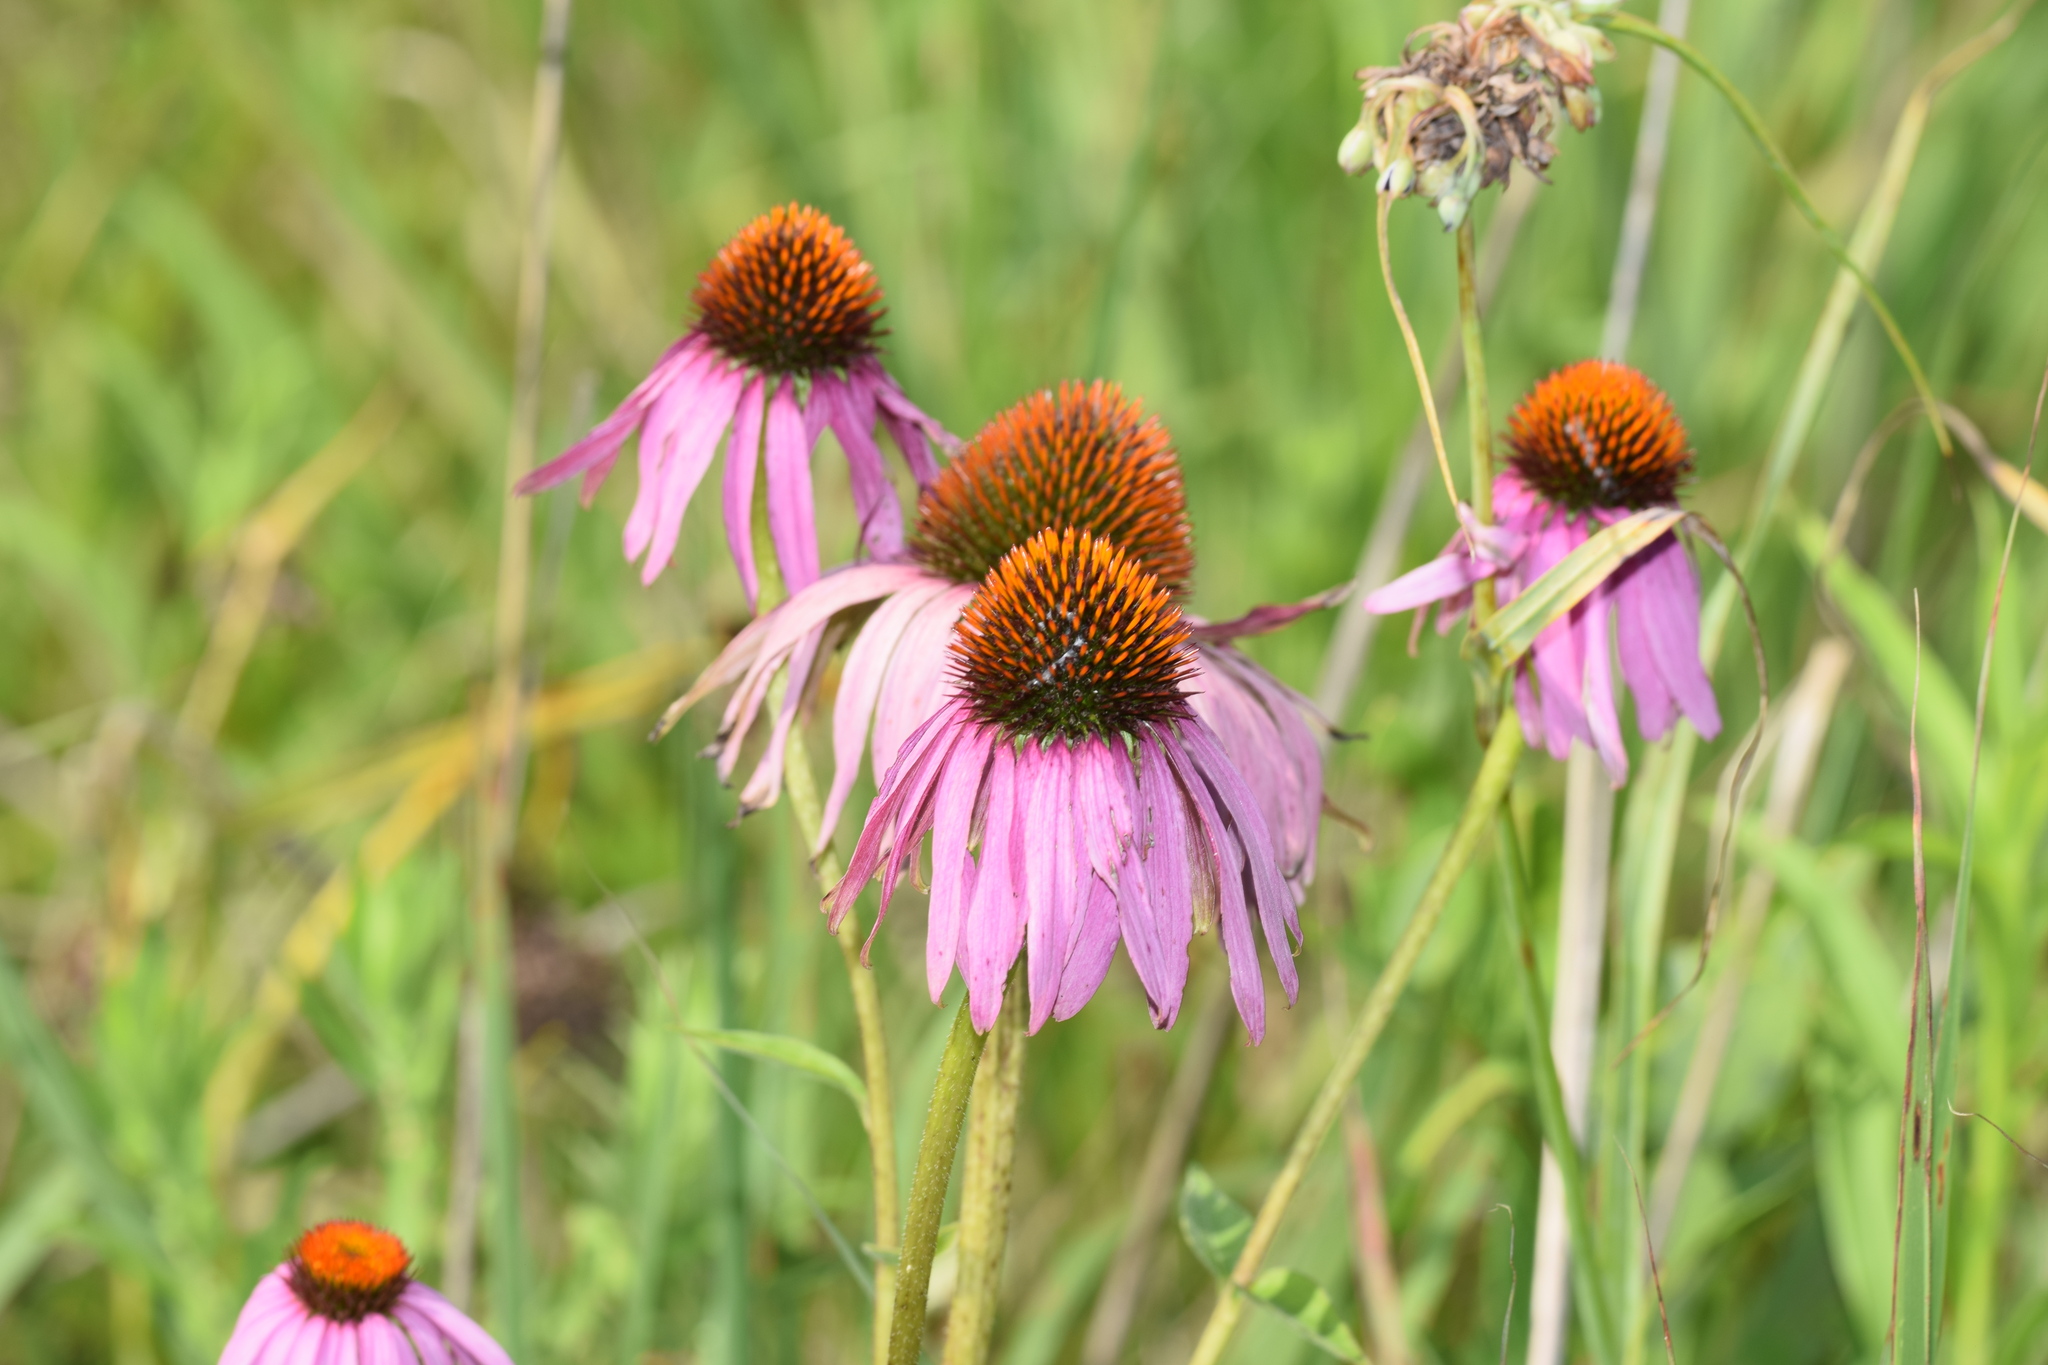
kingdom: Plantae
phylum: Tracheophyta
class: Magnoliopsida
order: Asterales
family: Asteraceae
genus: Echinacea
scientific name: Echinacea purpurea
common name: Broad-leaved purple coneflower
